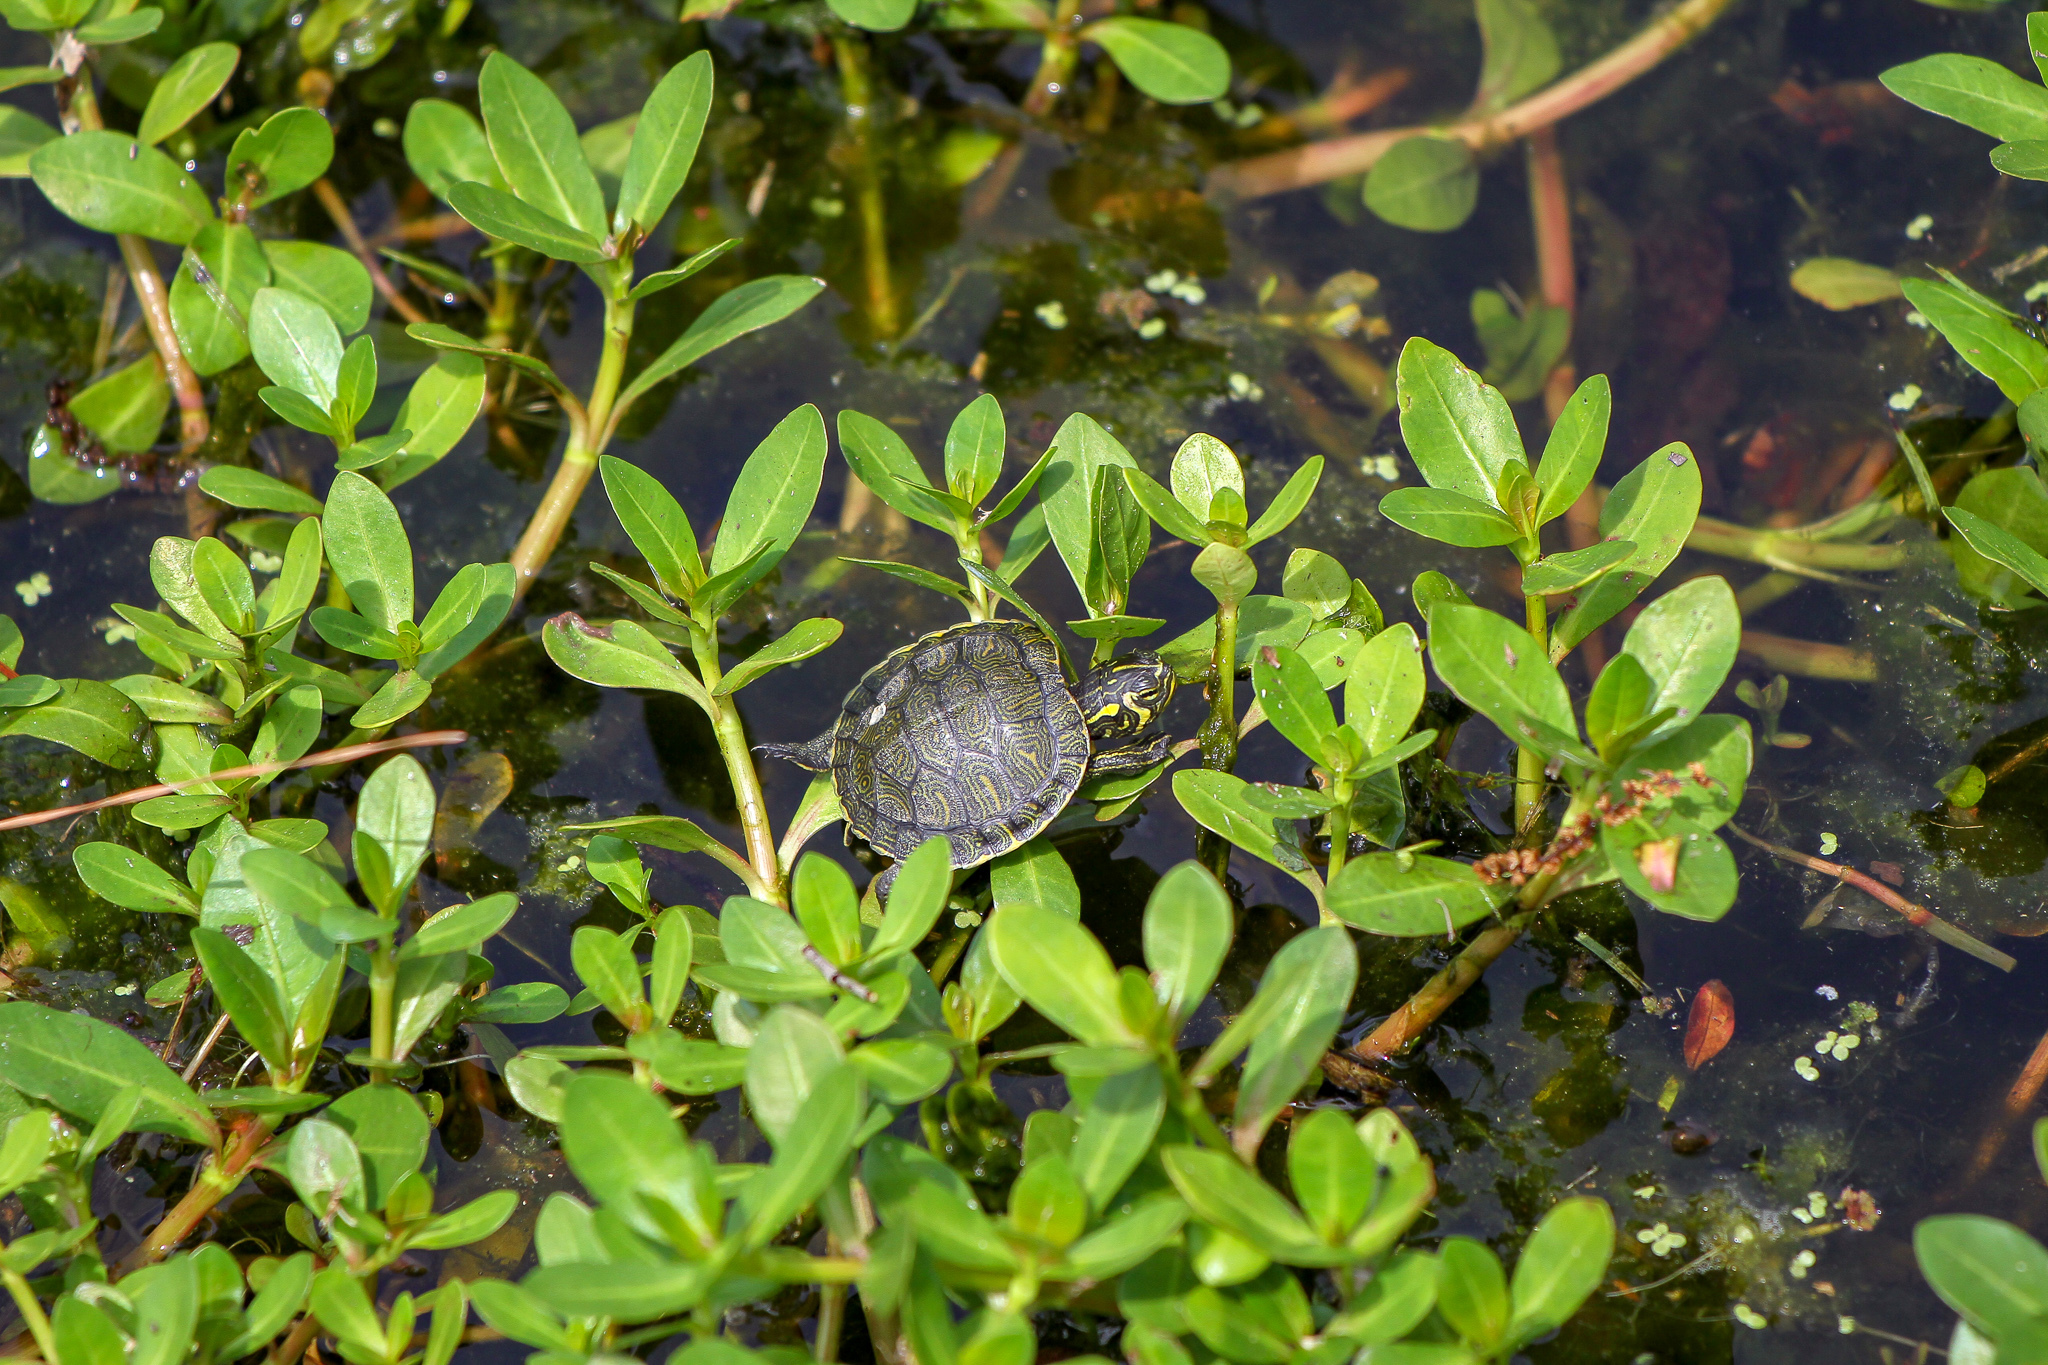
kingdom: Animalia
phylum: Chordata
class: Testudines
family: Emydidae
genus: Trachemys
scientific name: Trachemys scripta
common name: Slider
